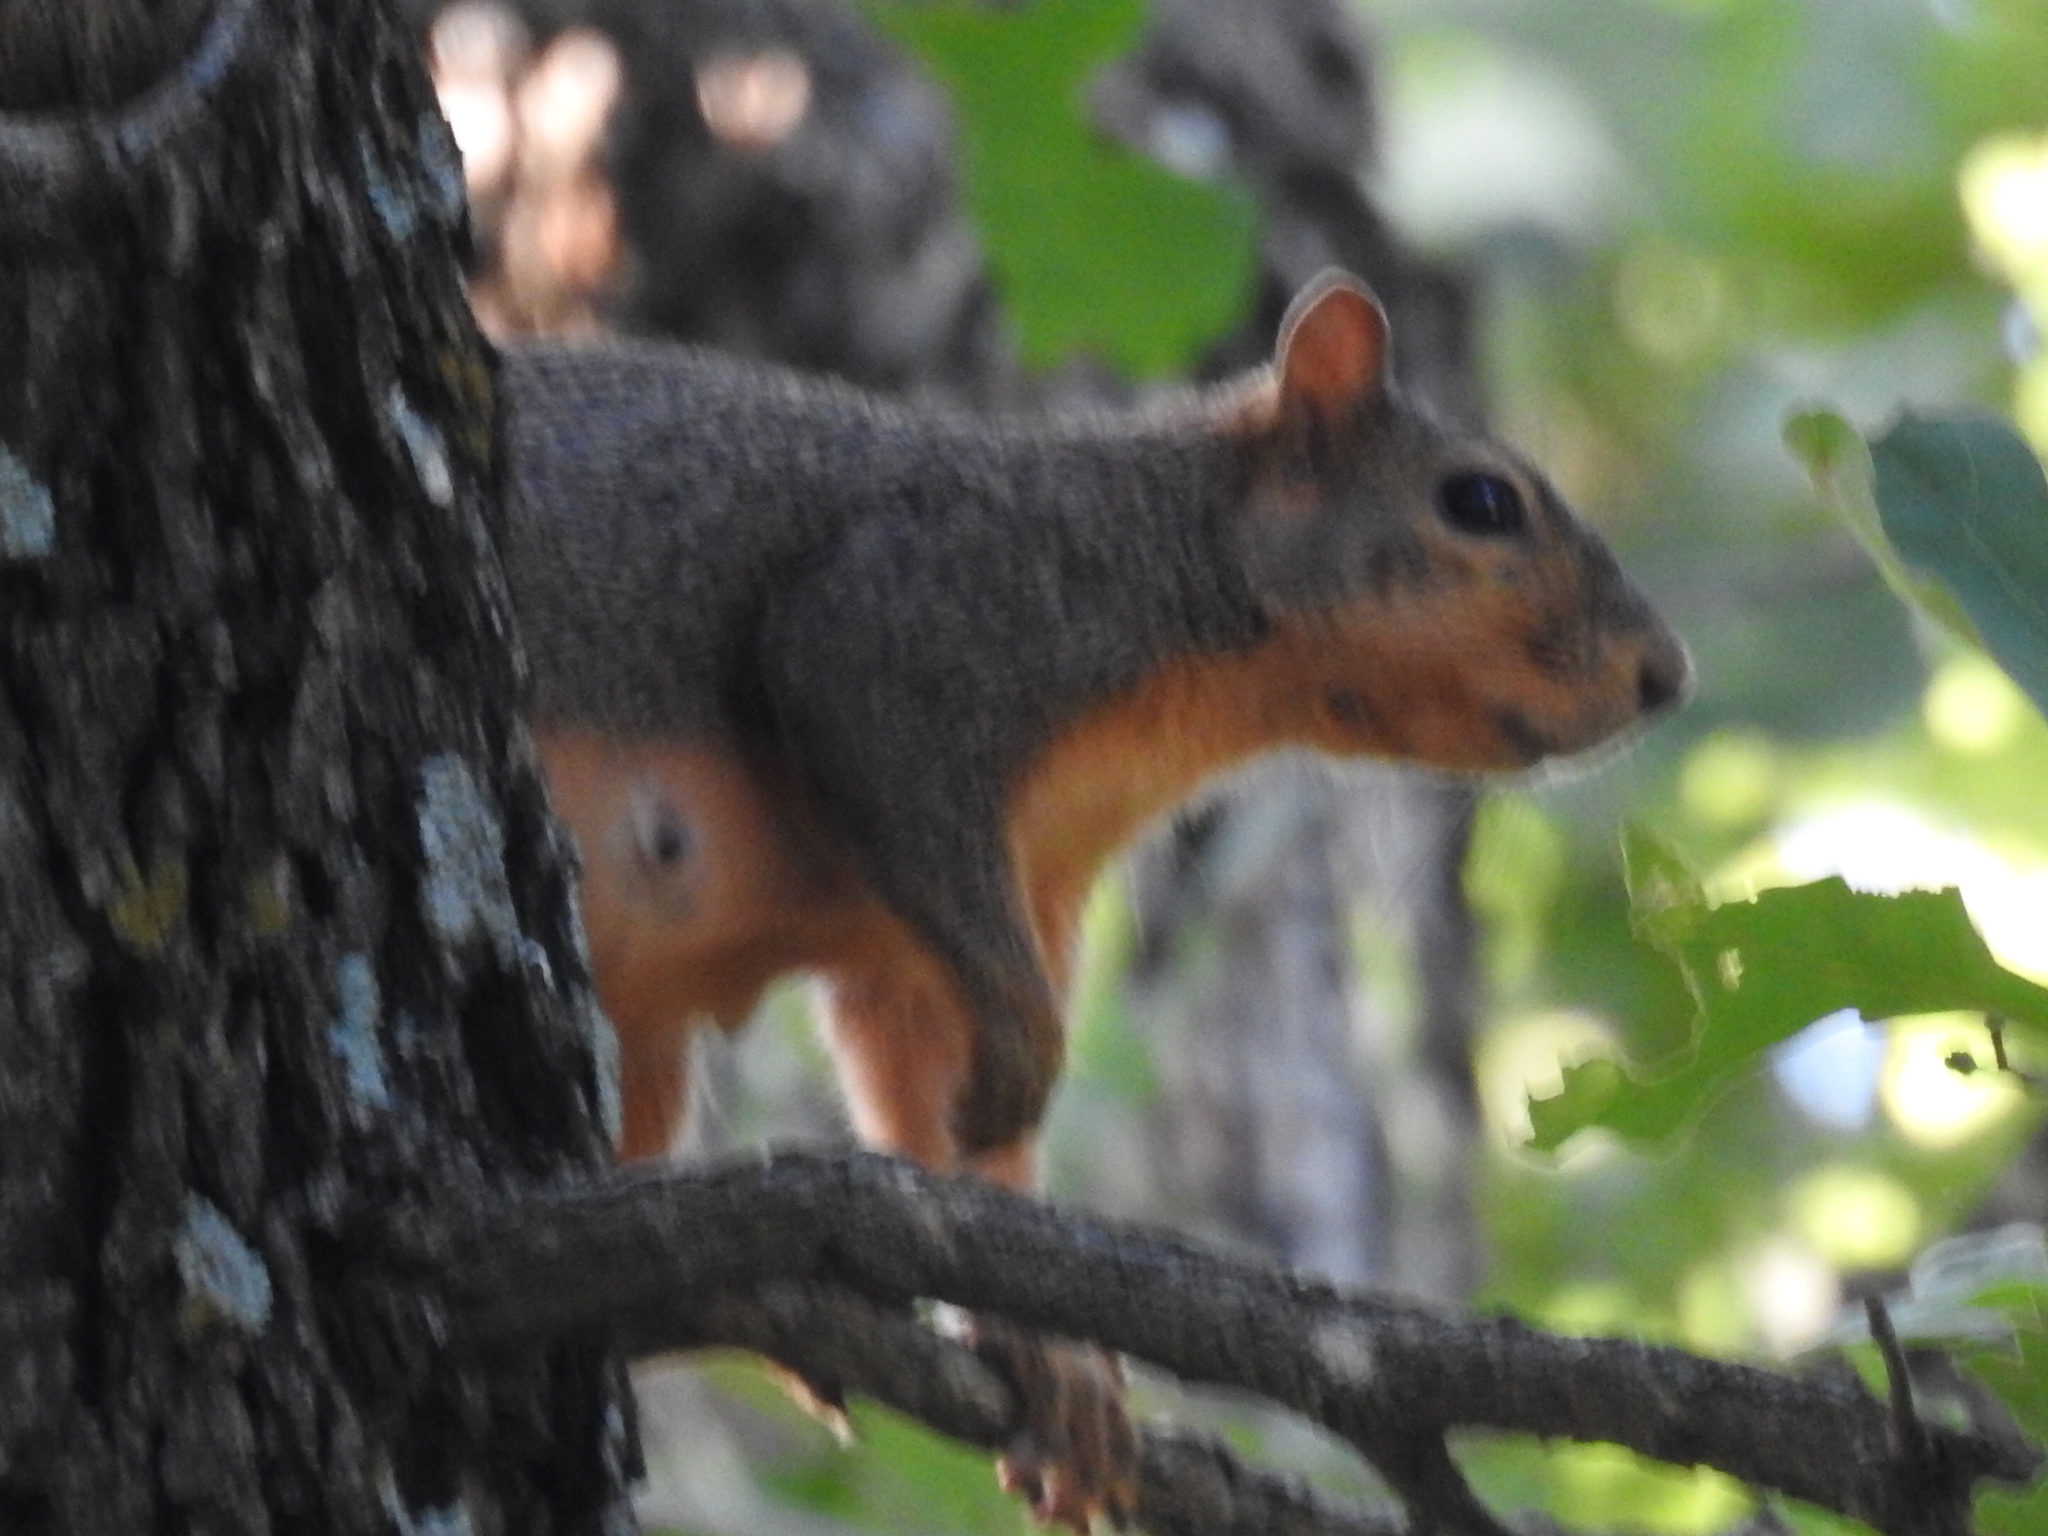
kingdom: Animalia
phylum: Chordata
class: Mammalia
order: Rodentia
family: Sciuridae
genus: Sciurus
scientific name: Sciurus niger
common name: Fox squirrel
